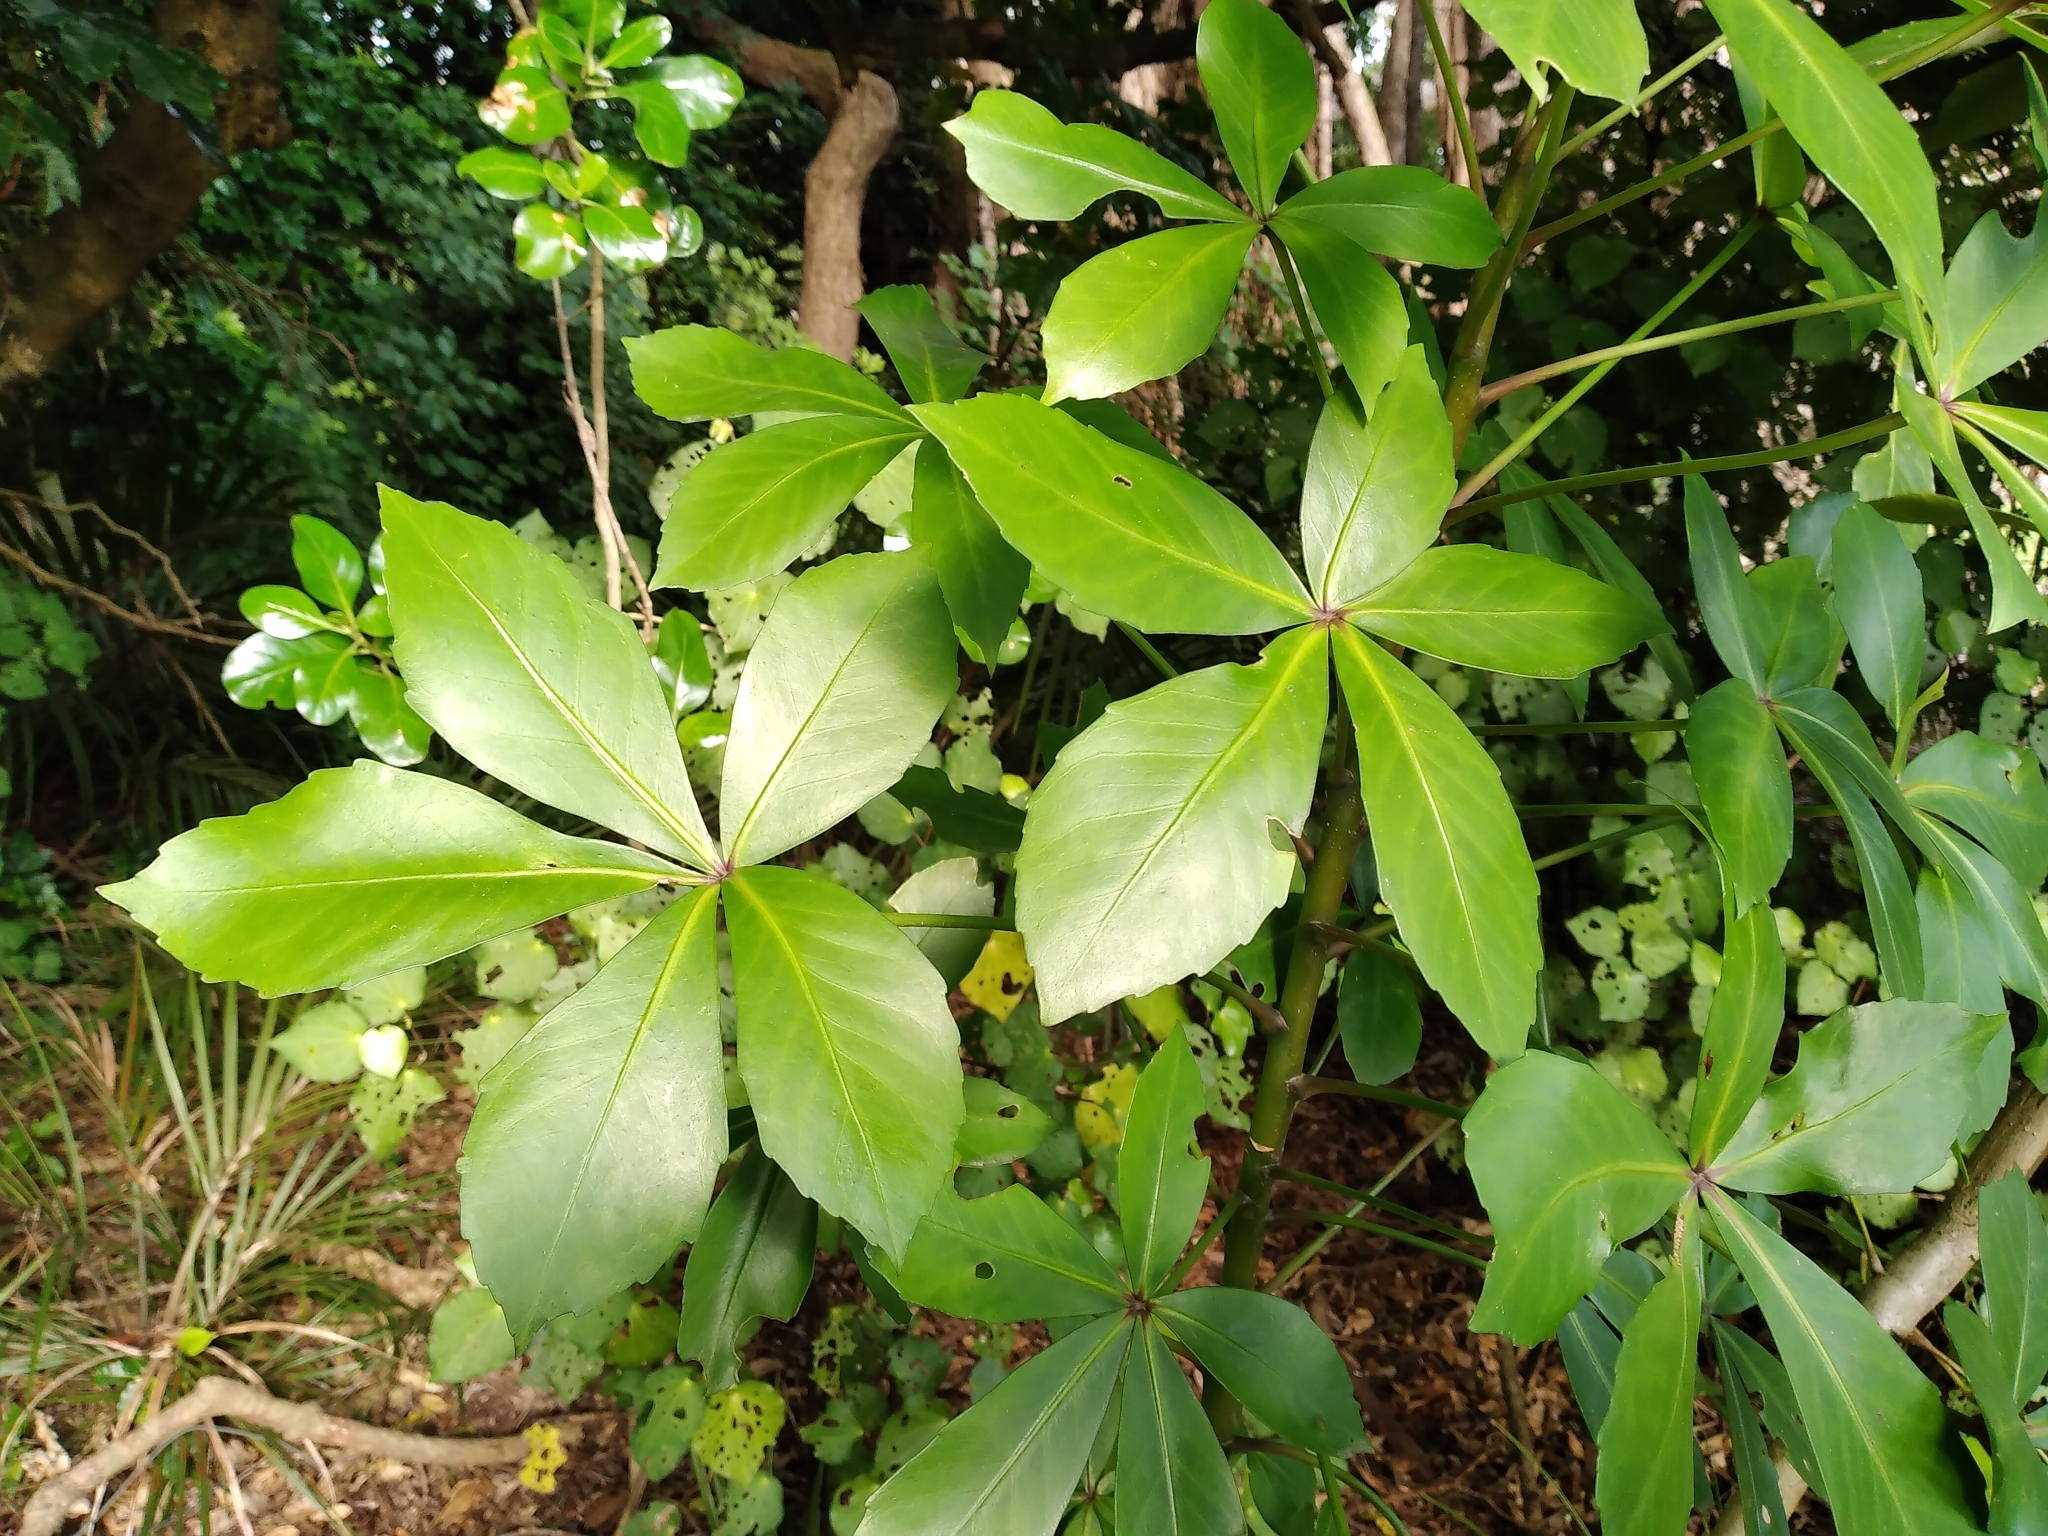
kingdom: Plantae
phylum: Tracheophyta
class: Magnoliopsida
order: Apiales
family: Araliaceae
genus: Pseudopanax
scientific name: Pseudopanax lessonii
